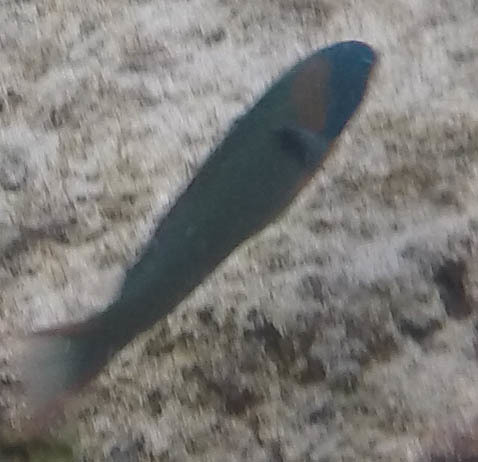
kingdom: Animalia
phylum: Chordata
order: Perciformes
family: Labridae
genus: Thalassoma
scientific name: Thalassoma duperrey
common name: Saddle wrasse
